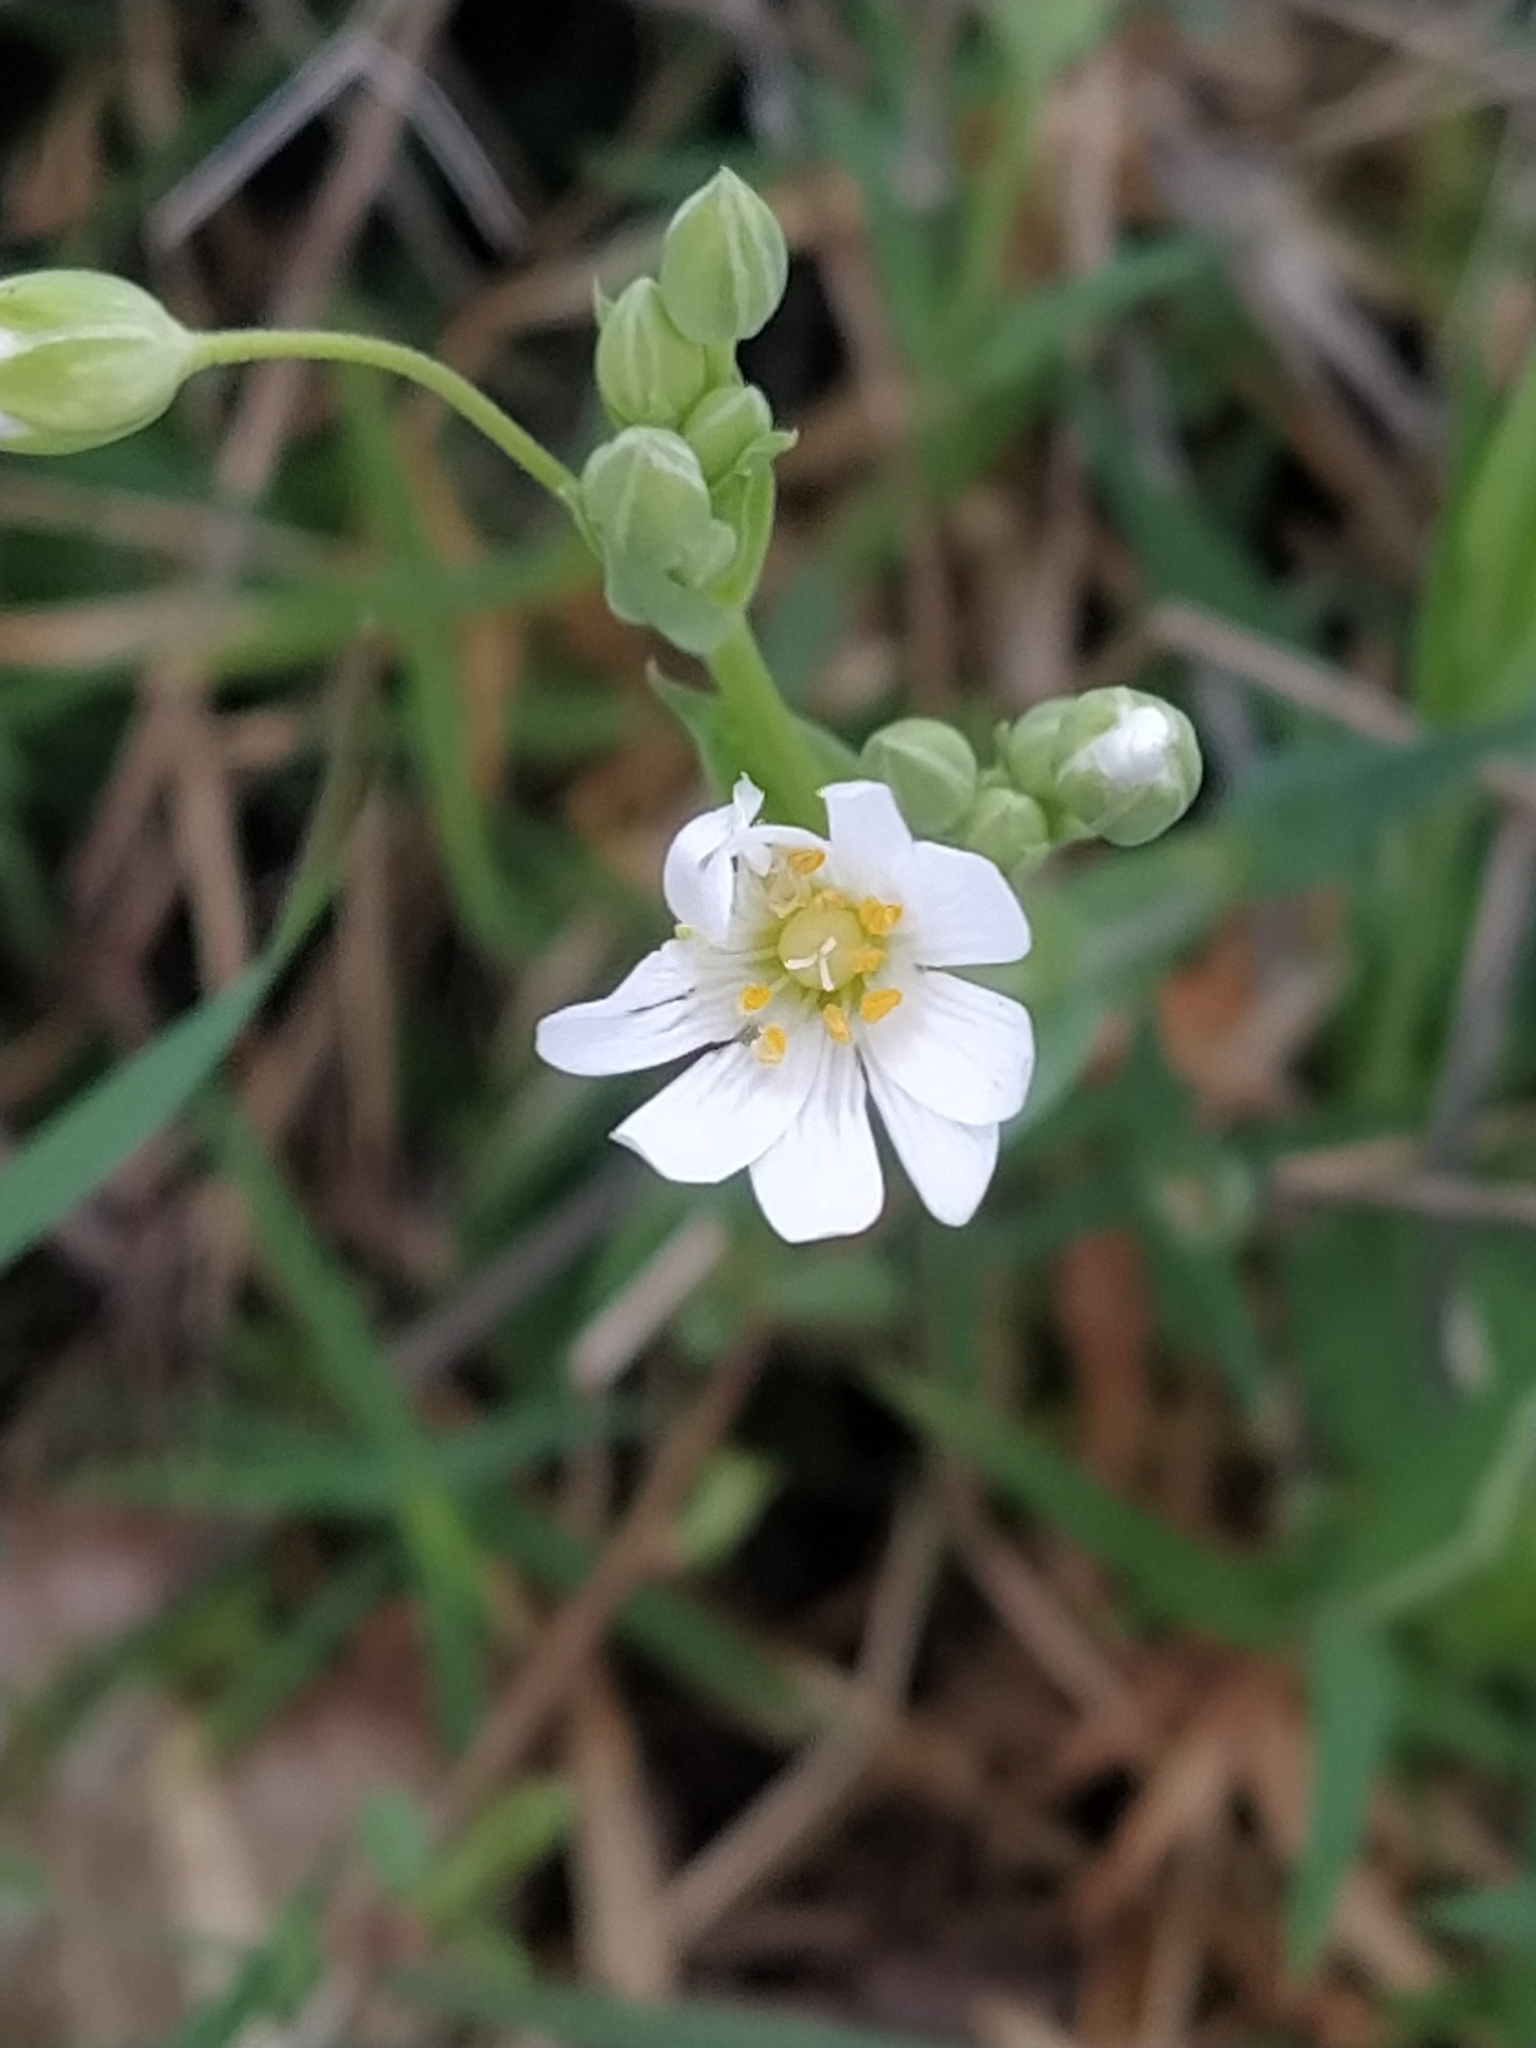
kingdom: Plantae
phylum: Tracheophyta
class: Magnoliopsida
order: Caryophyllales
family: Caryophyllaceae
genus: Rabelera
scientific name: Rabelera holostea
